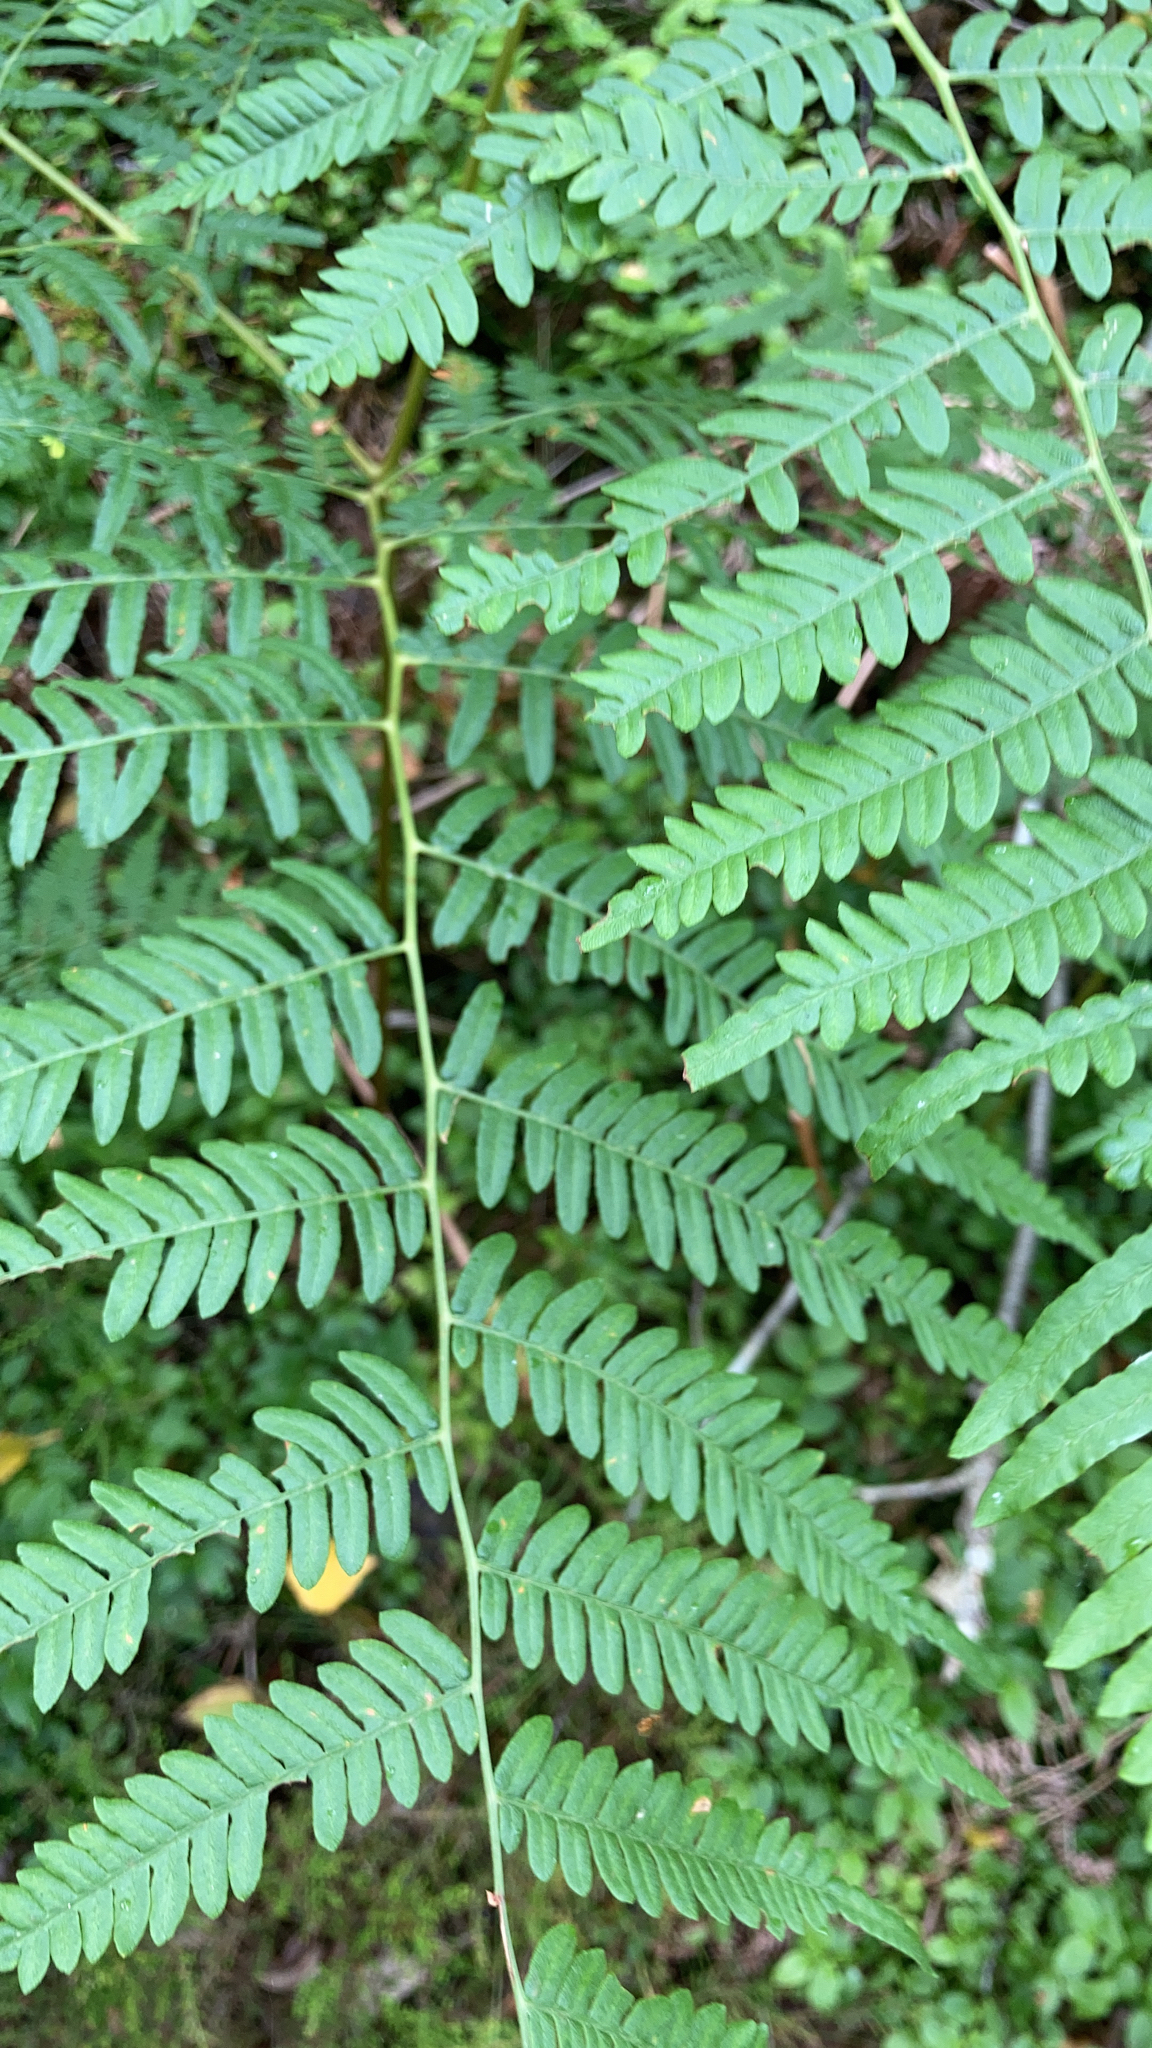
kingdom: Plantae
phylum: Tracheophyta
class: Polypodiopsida
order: Polypodiales
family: Dennstaedtiaceae
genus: Pteridium
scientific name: Pteridium aquilinum
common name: Bracken
